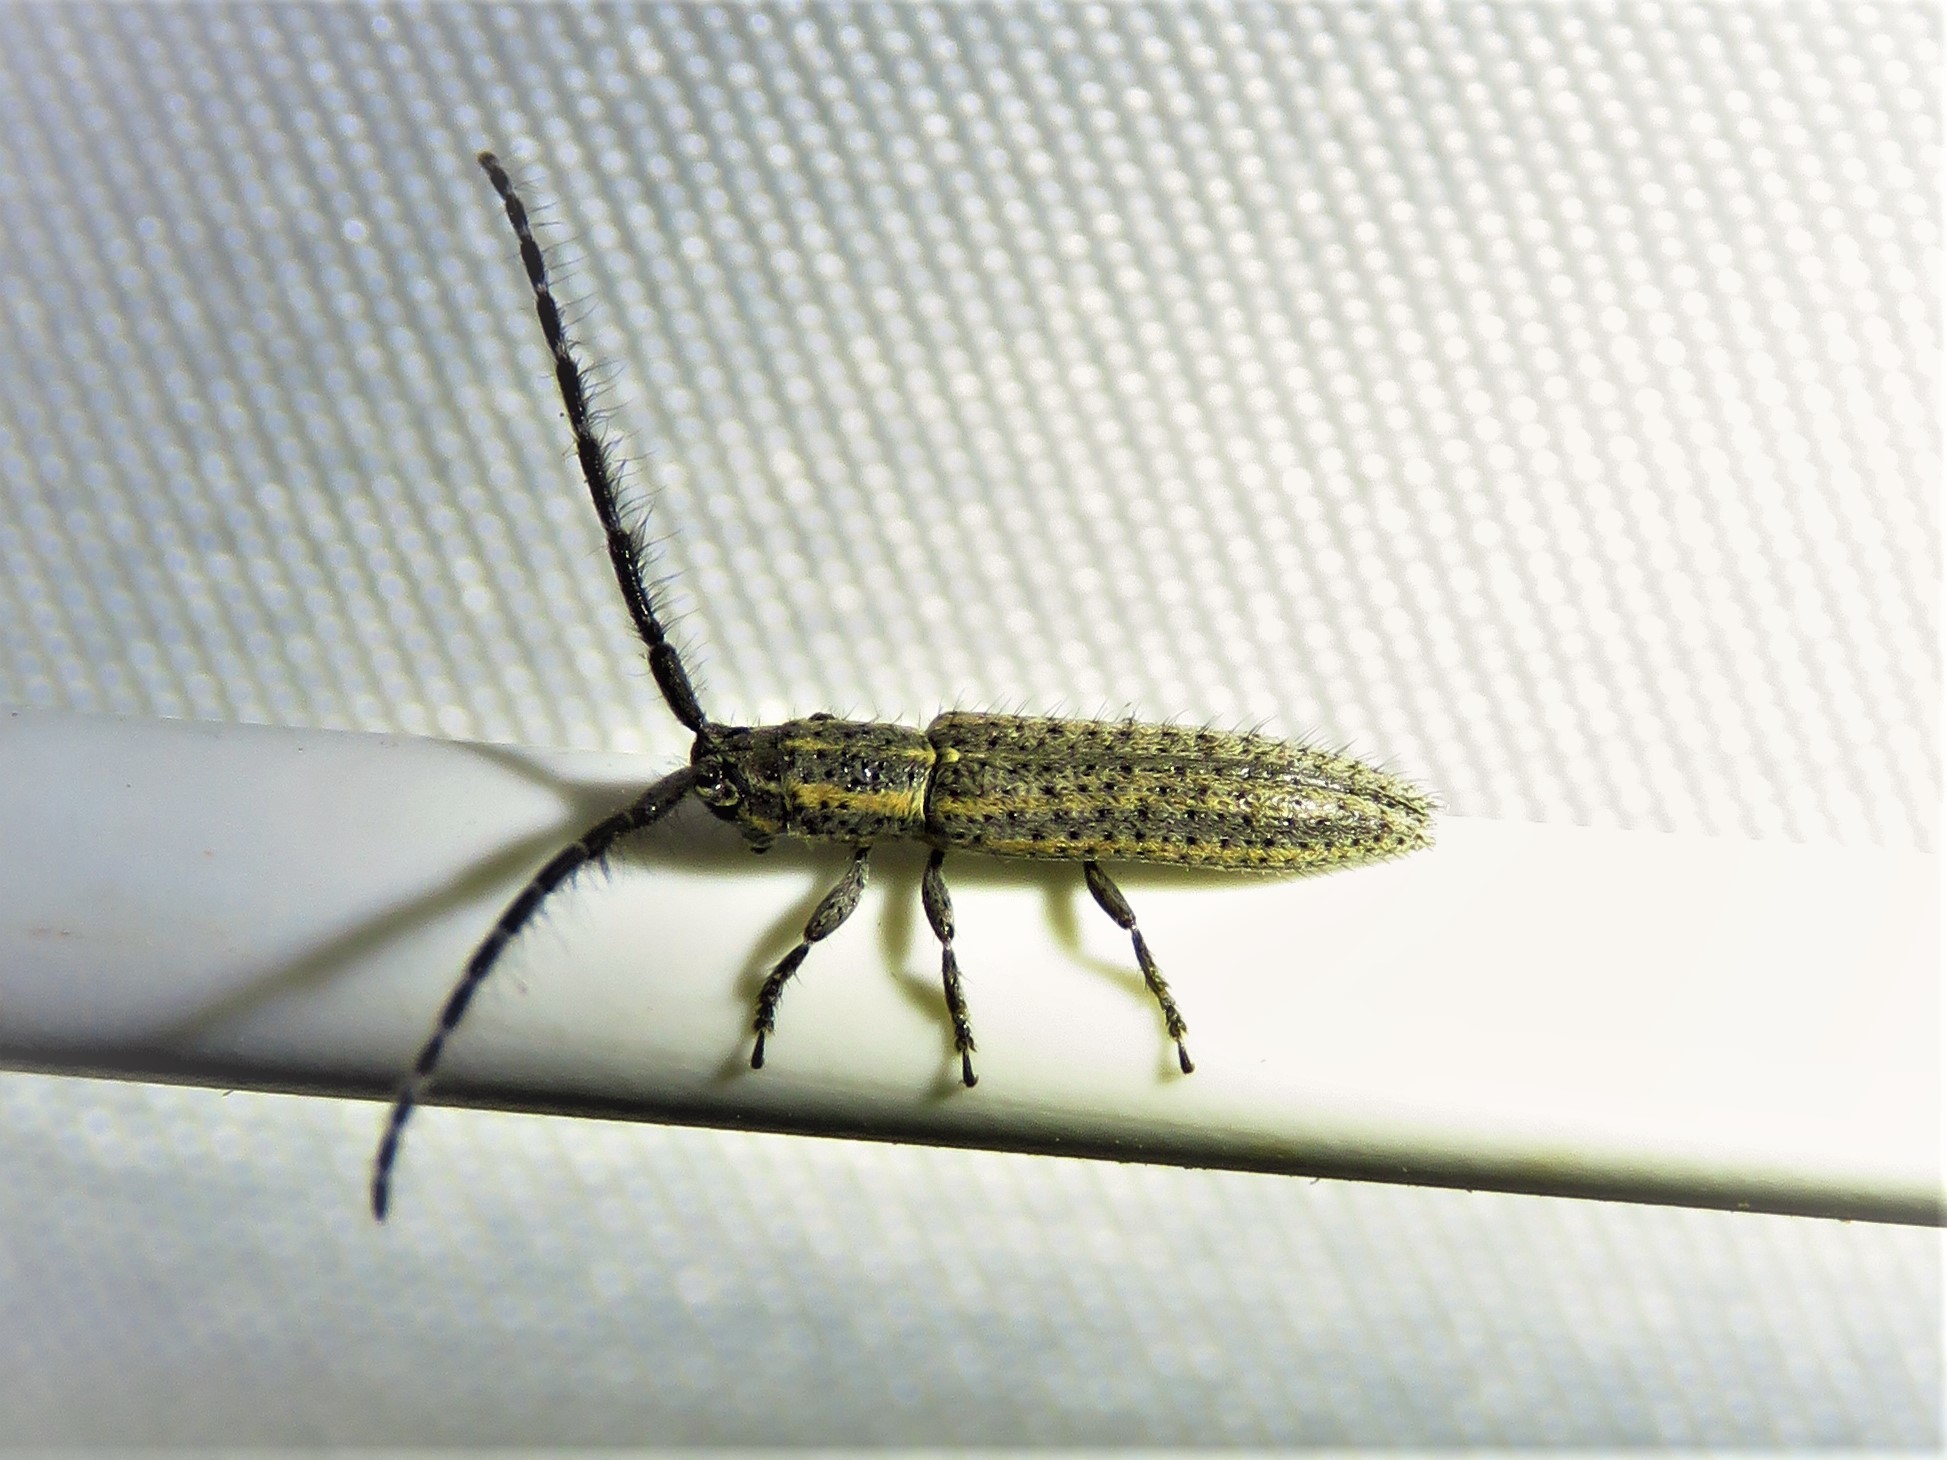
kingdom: Animalia
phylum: Arthropoda
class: Insecta
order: Coleoptera
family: Cerambycidae
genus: Dorcasta
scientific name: Dorcasta cinerea
